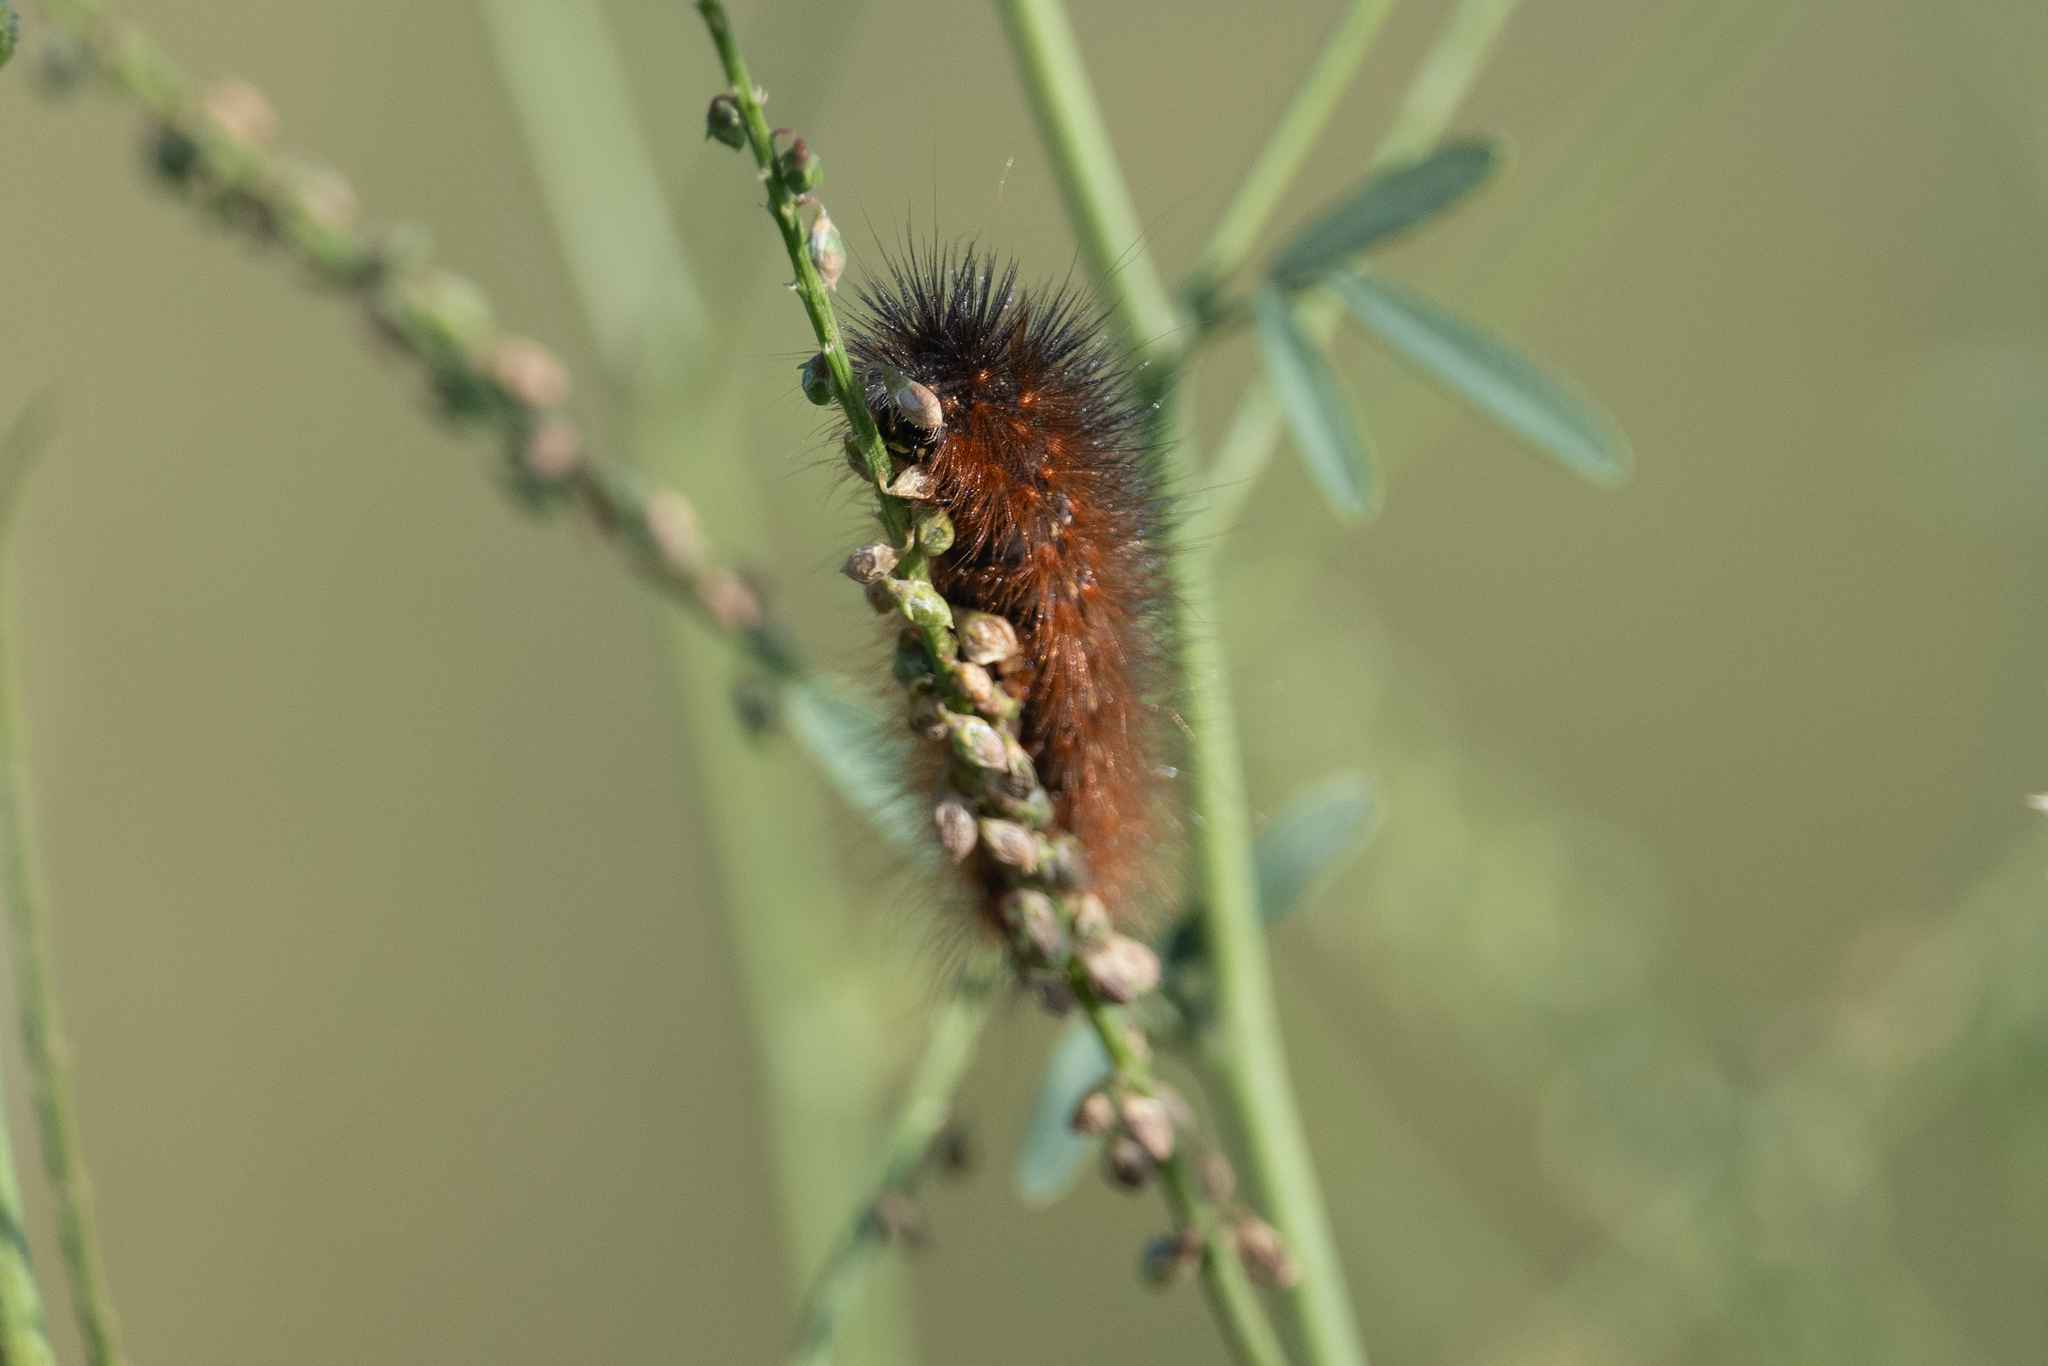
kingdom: Animalia
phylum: Arthropoda
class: Insecta
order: Lepidoptera
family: Erebidae
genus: Estigmene
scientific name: Estigmene acrea
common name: Salt marsh moth
